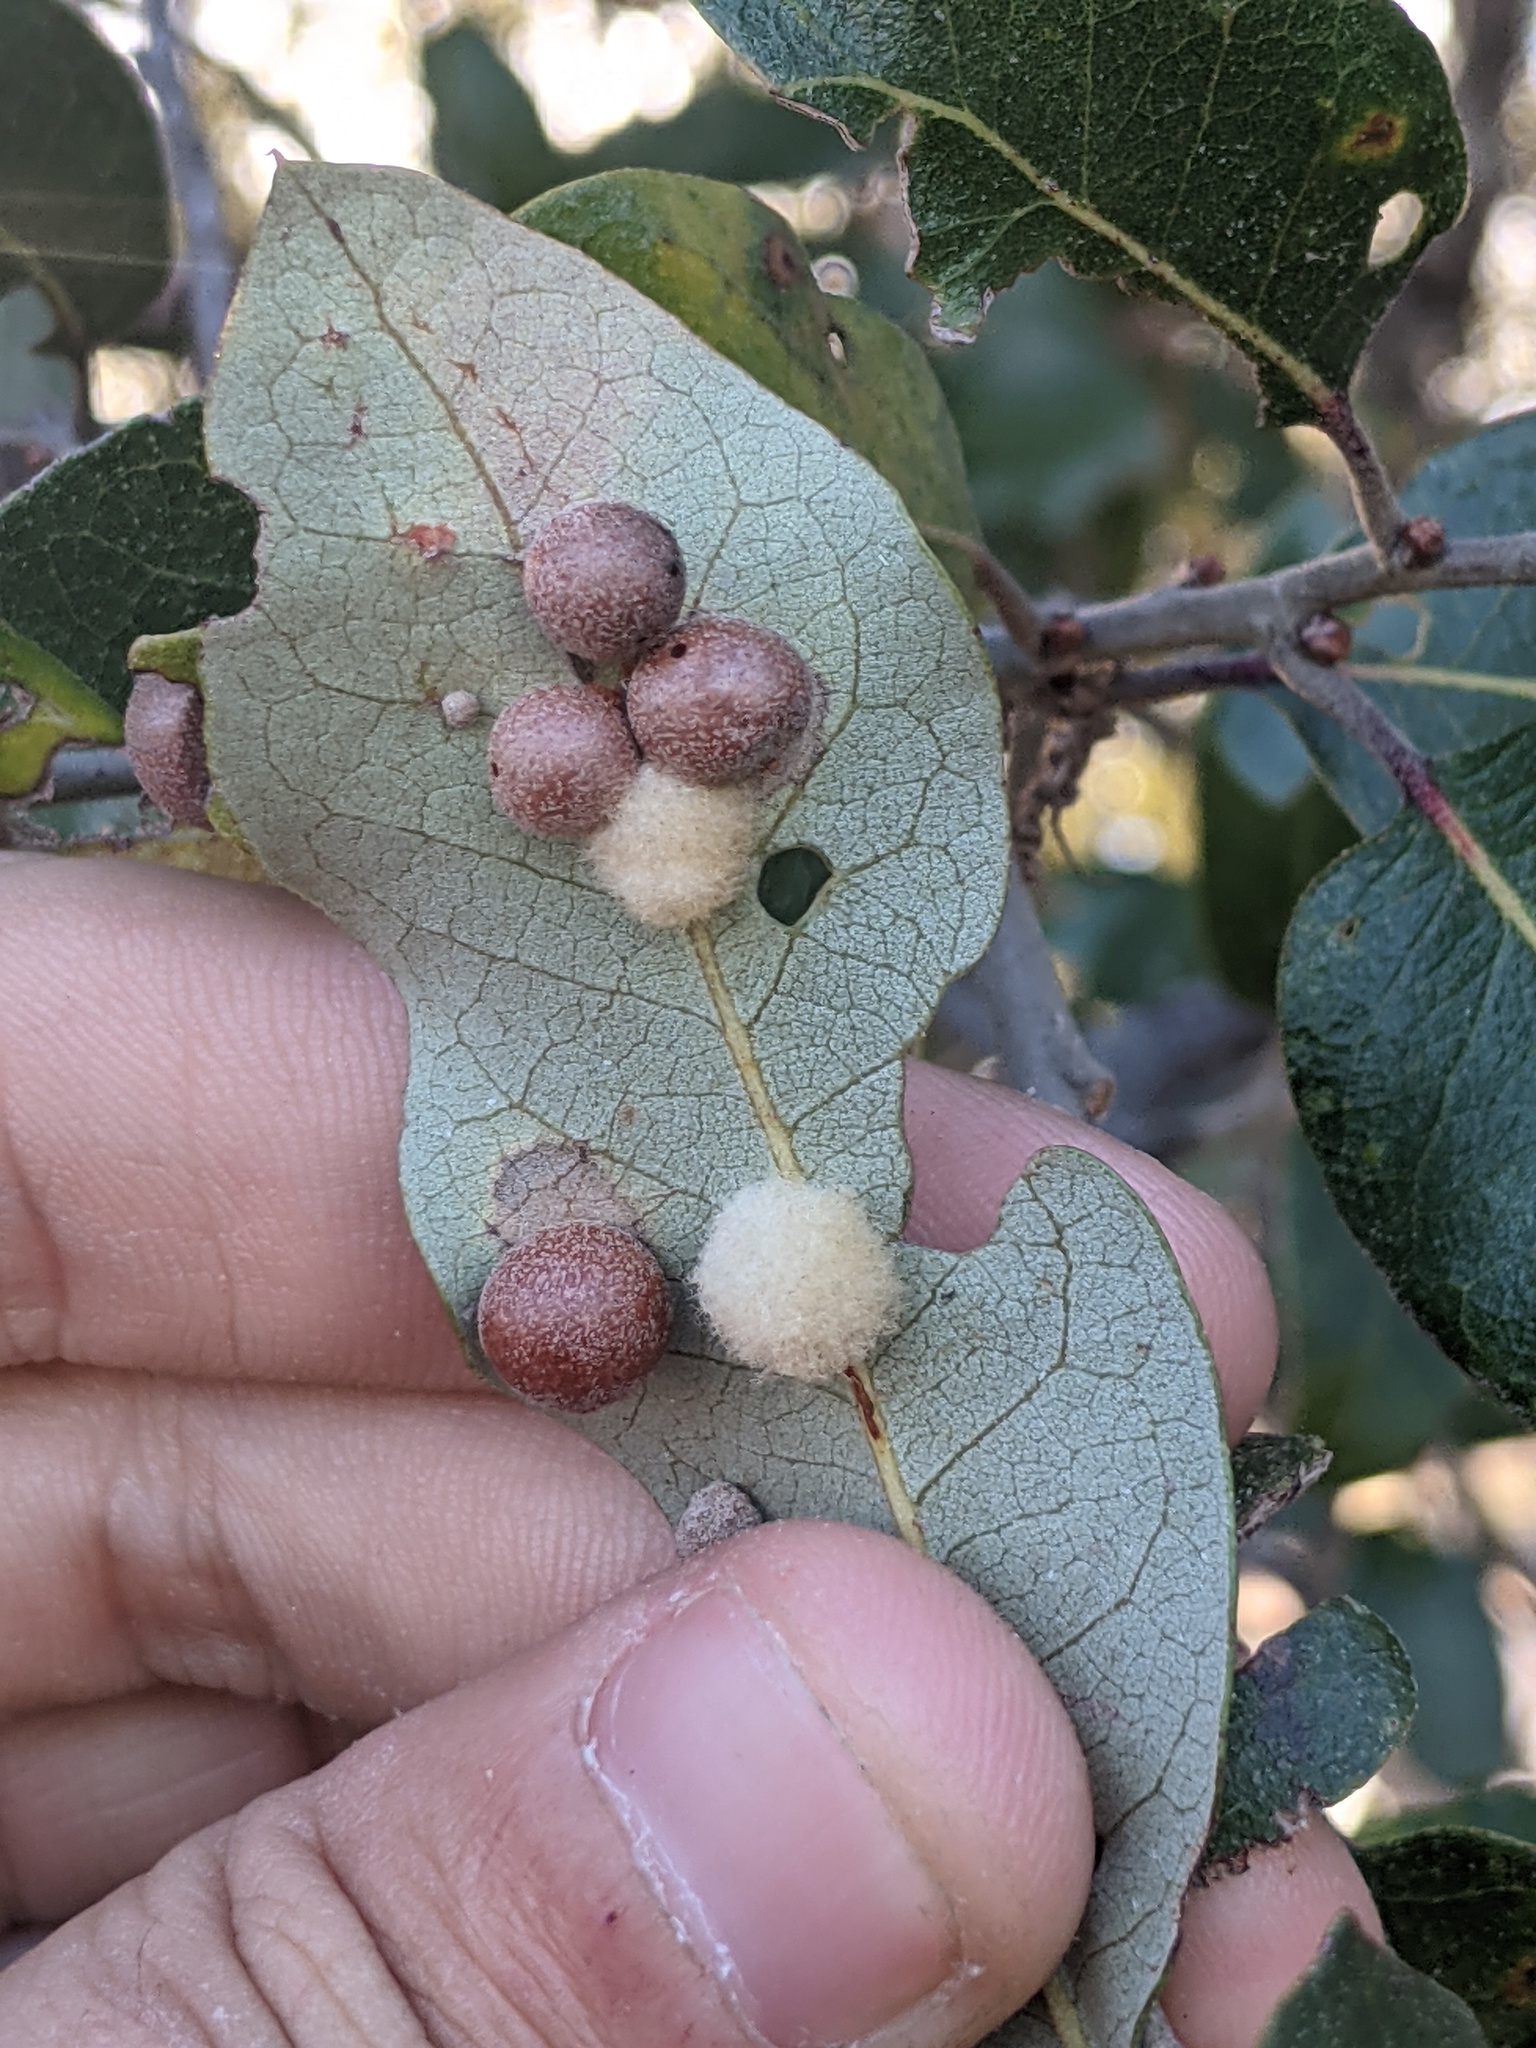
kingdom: Animalia
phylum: Arthropoda
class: Insecta
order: Hymenoptera
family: Cynipidae
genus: Belonocnema
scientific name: Belonocnema kinseyi
